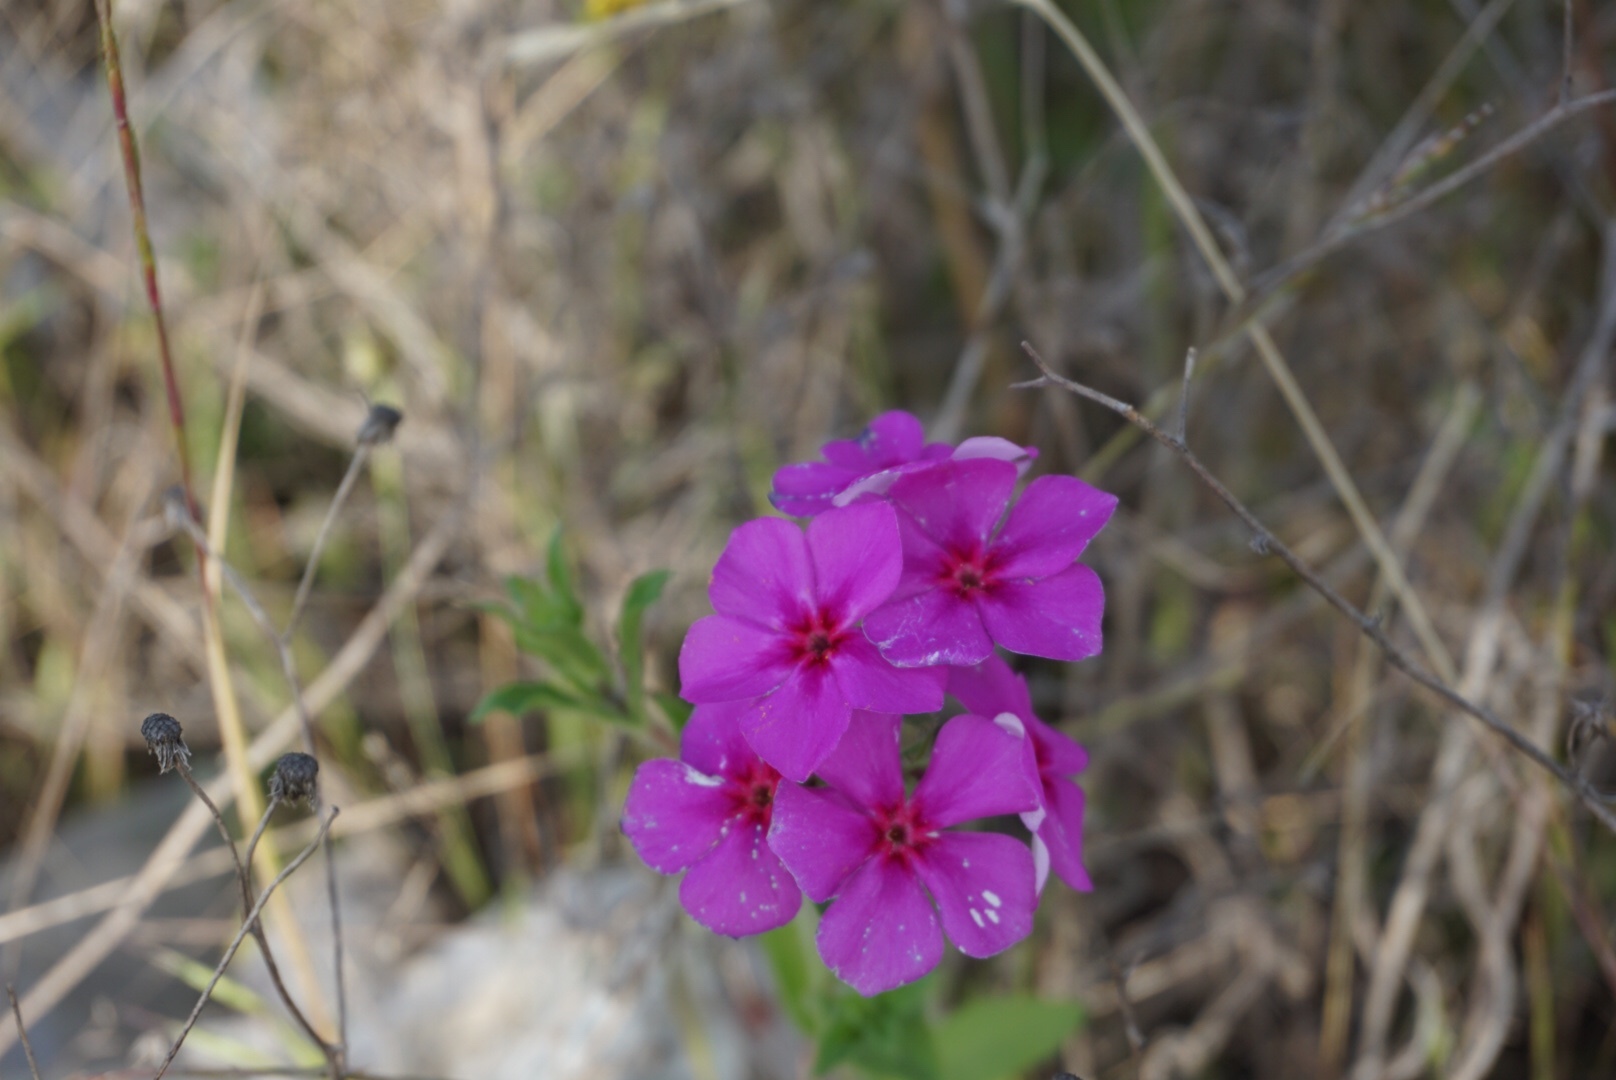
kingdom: Plantae
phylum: Tracheophyta
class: Magnoliopsida
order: Ericales
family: Polemoniaceae
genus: Phlox
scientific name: Phlox drummondii
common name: Drummond's phlox
